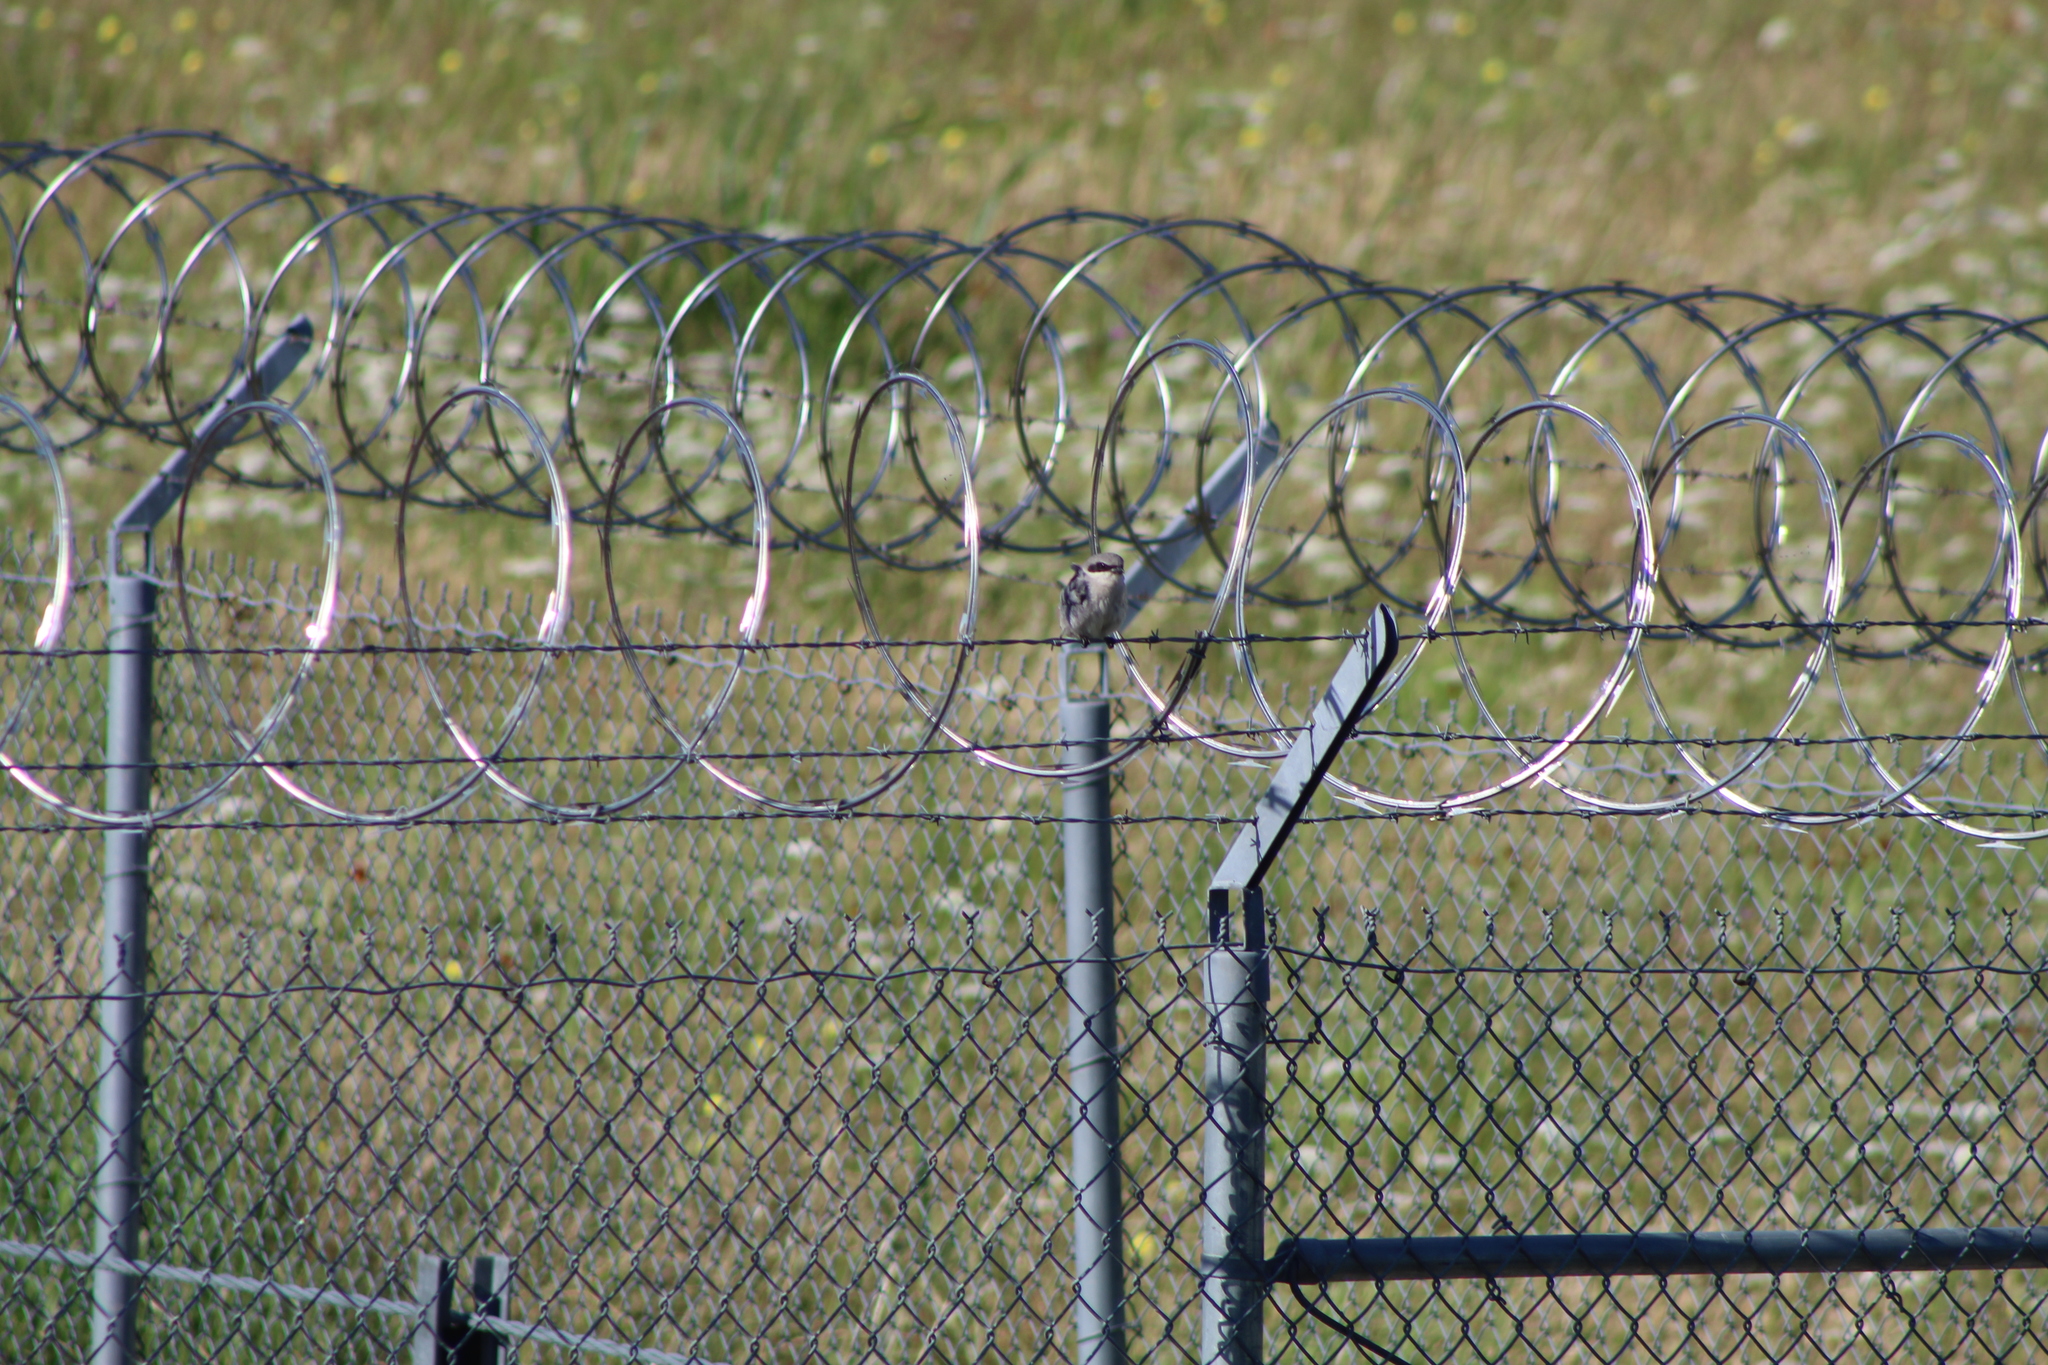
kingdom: Animalia
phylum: Chordata
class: Aves
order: Passeriformes
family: Laniidae
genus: Lanius
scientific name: Lanius ludovicianus
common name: Loggerhead shrike
